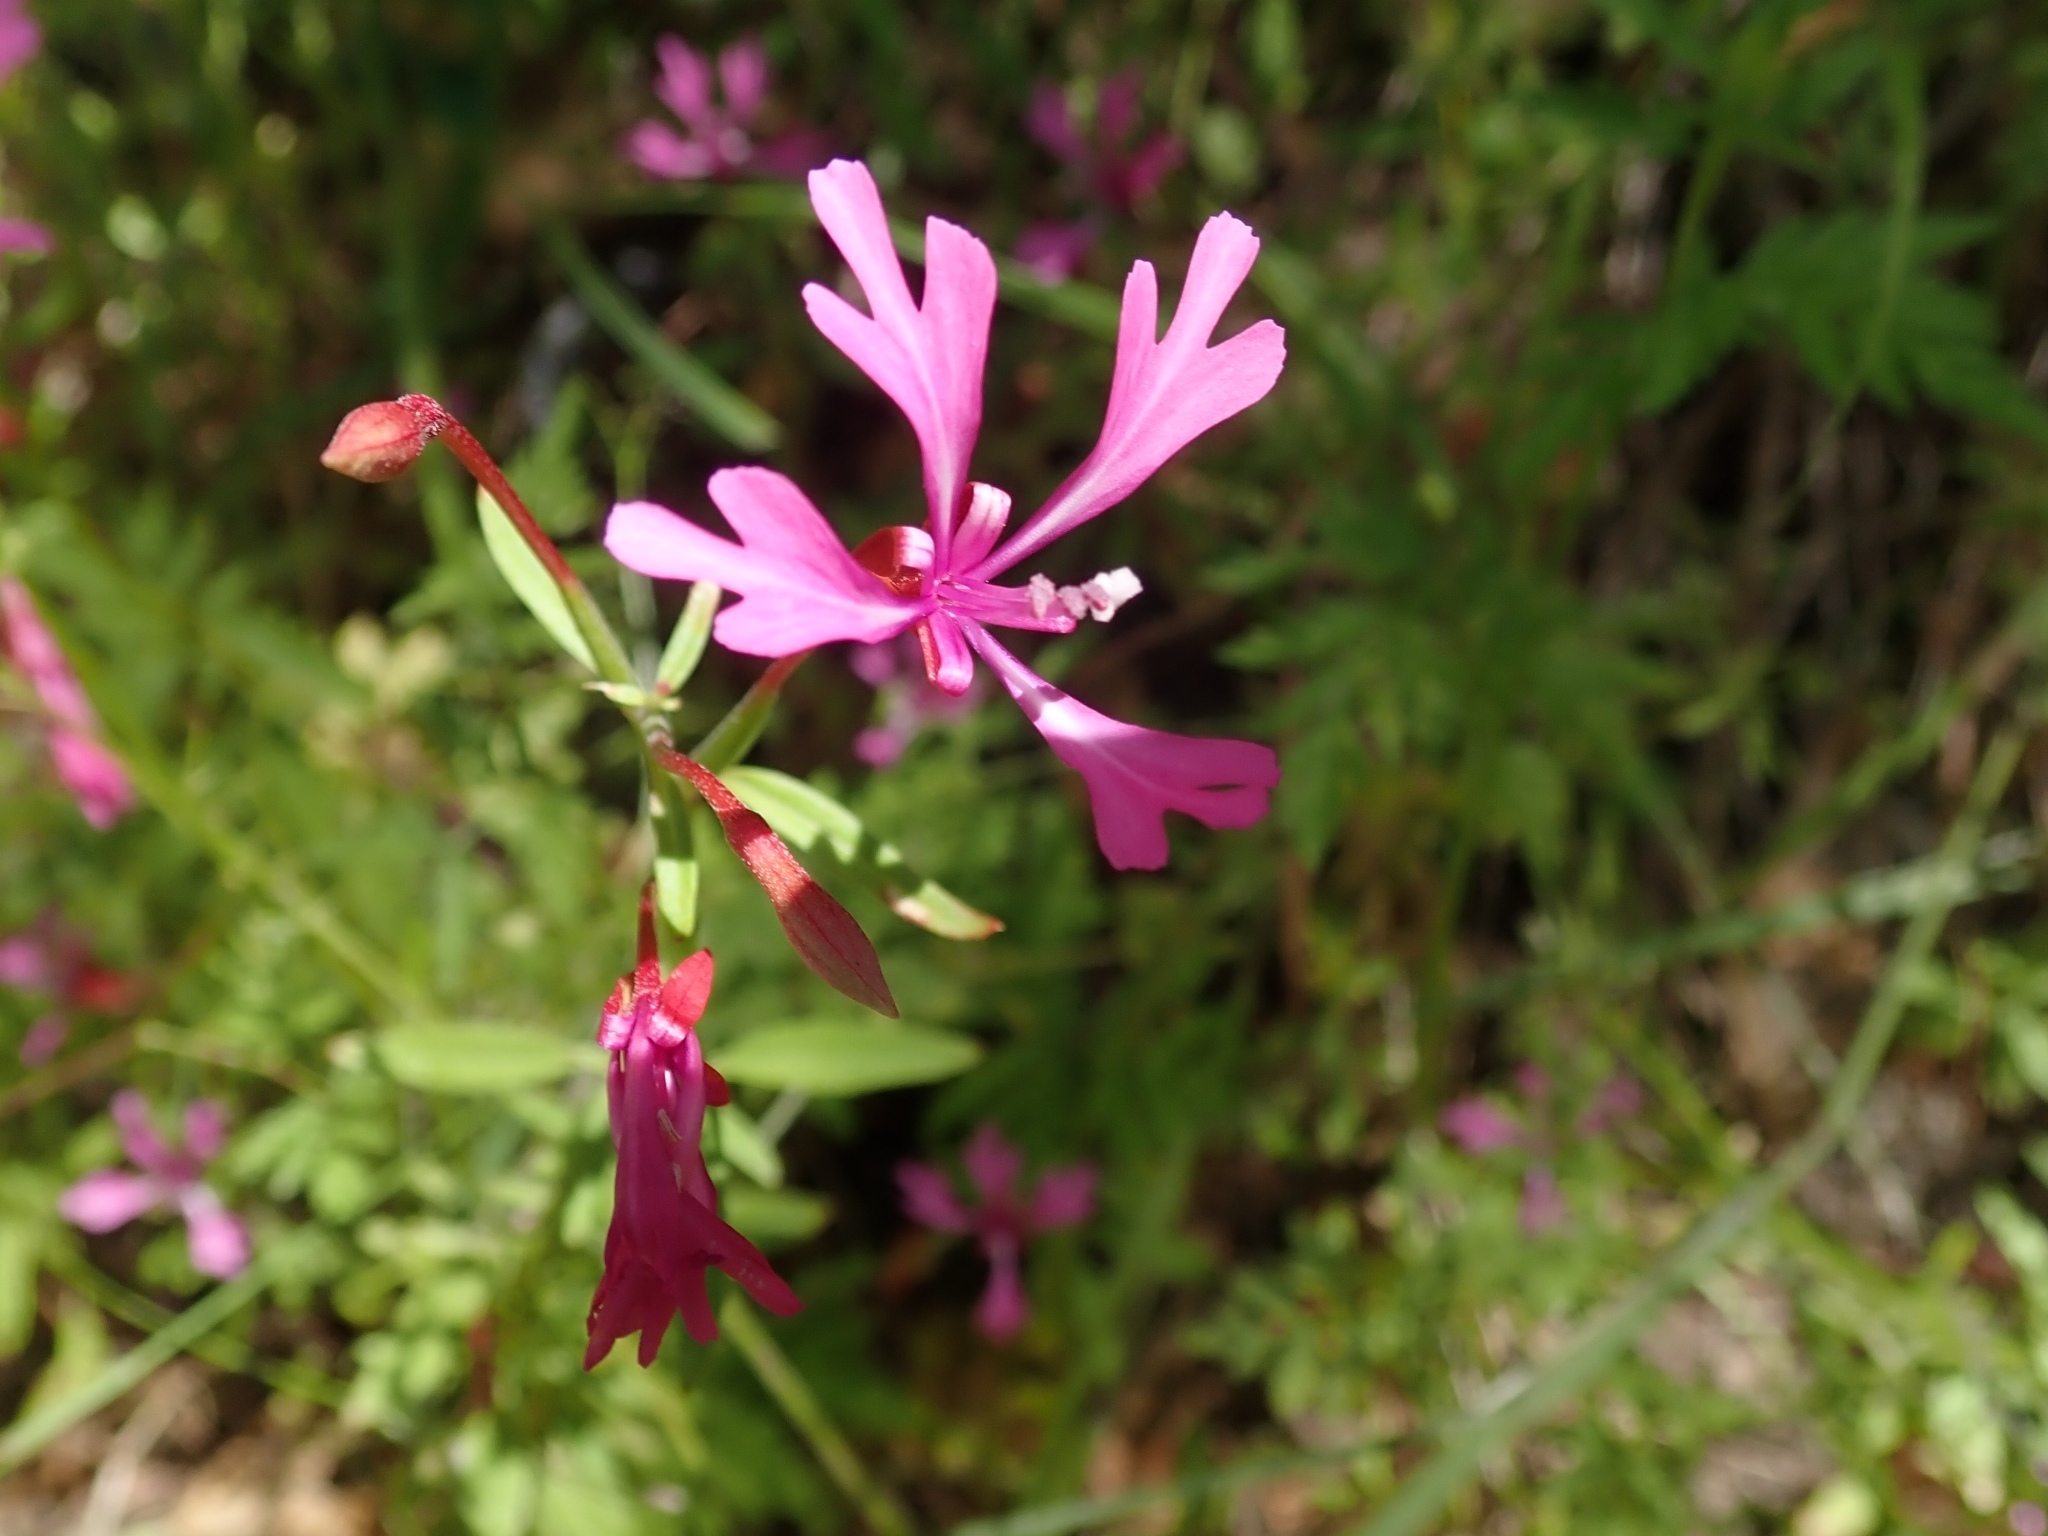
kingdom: Plantae
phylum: Tracheophyta
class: Magnoliopsida
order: Myrtales
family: Onagraceae
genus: Clarkia
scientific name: Clarkia concinna
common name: Red-ribbons
